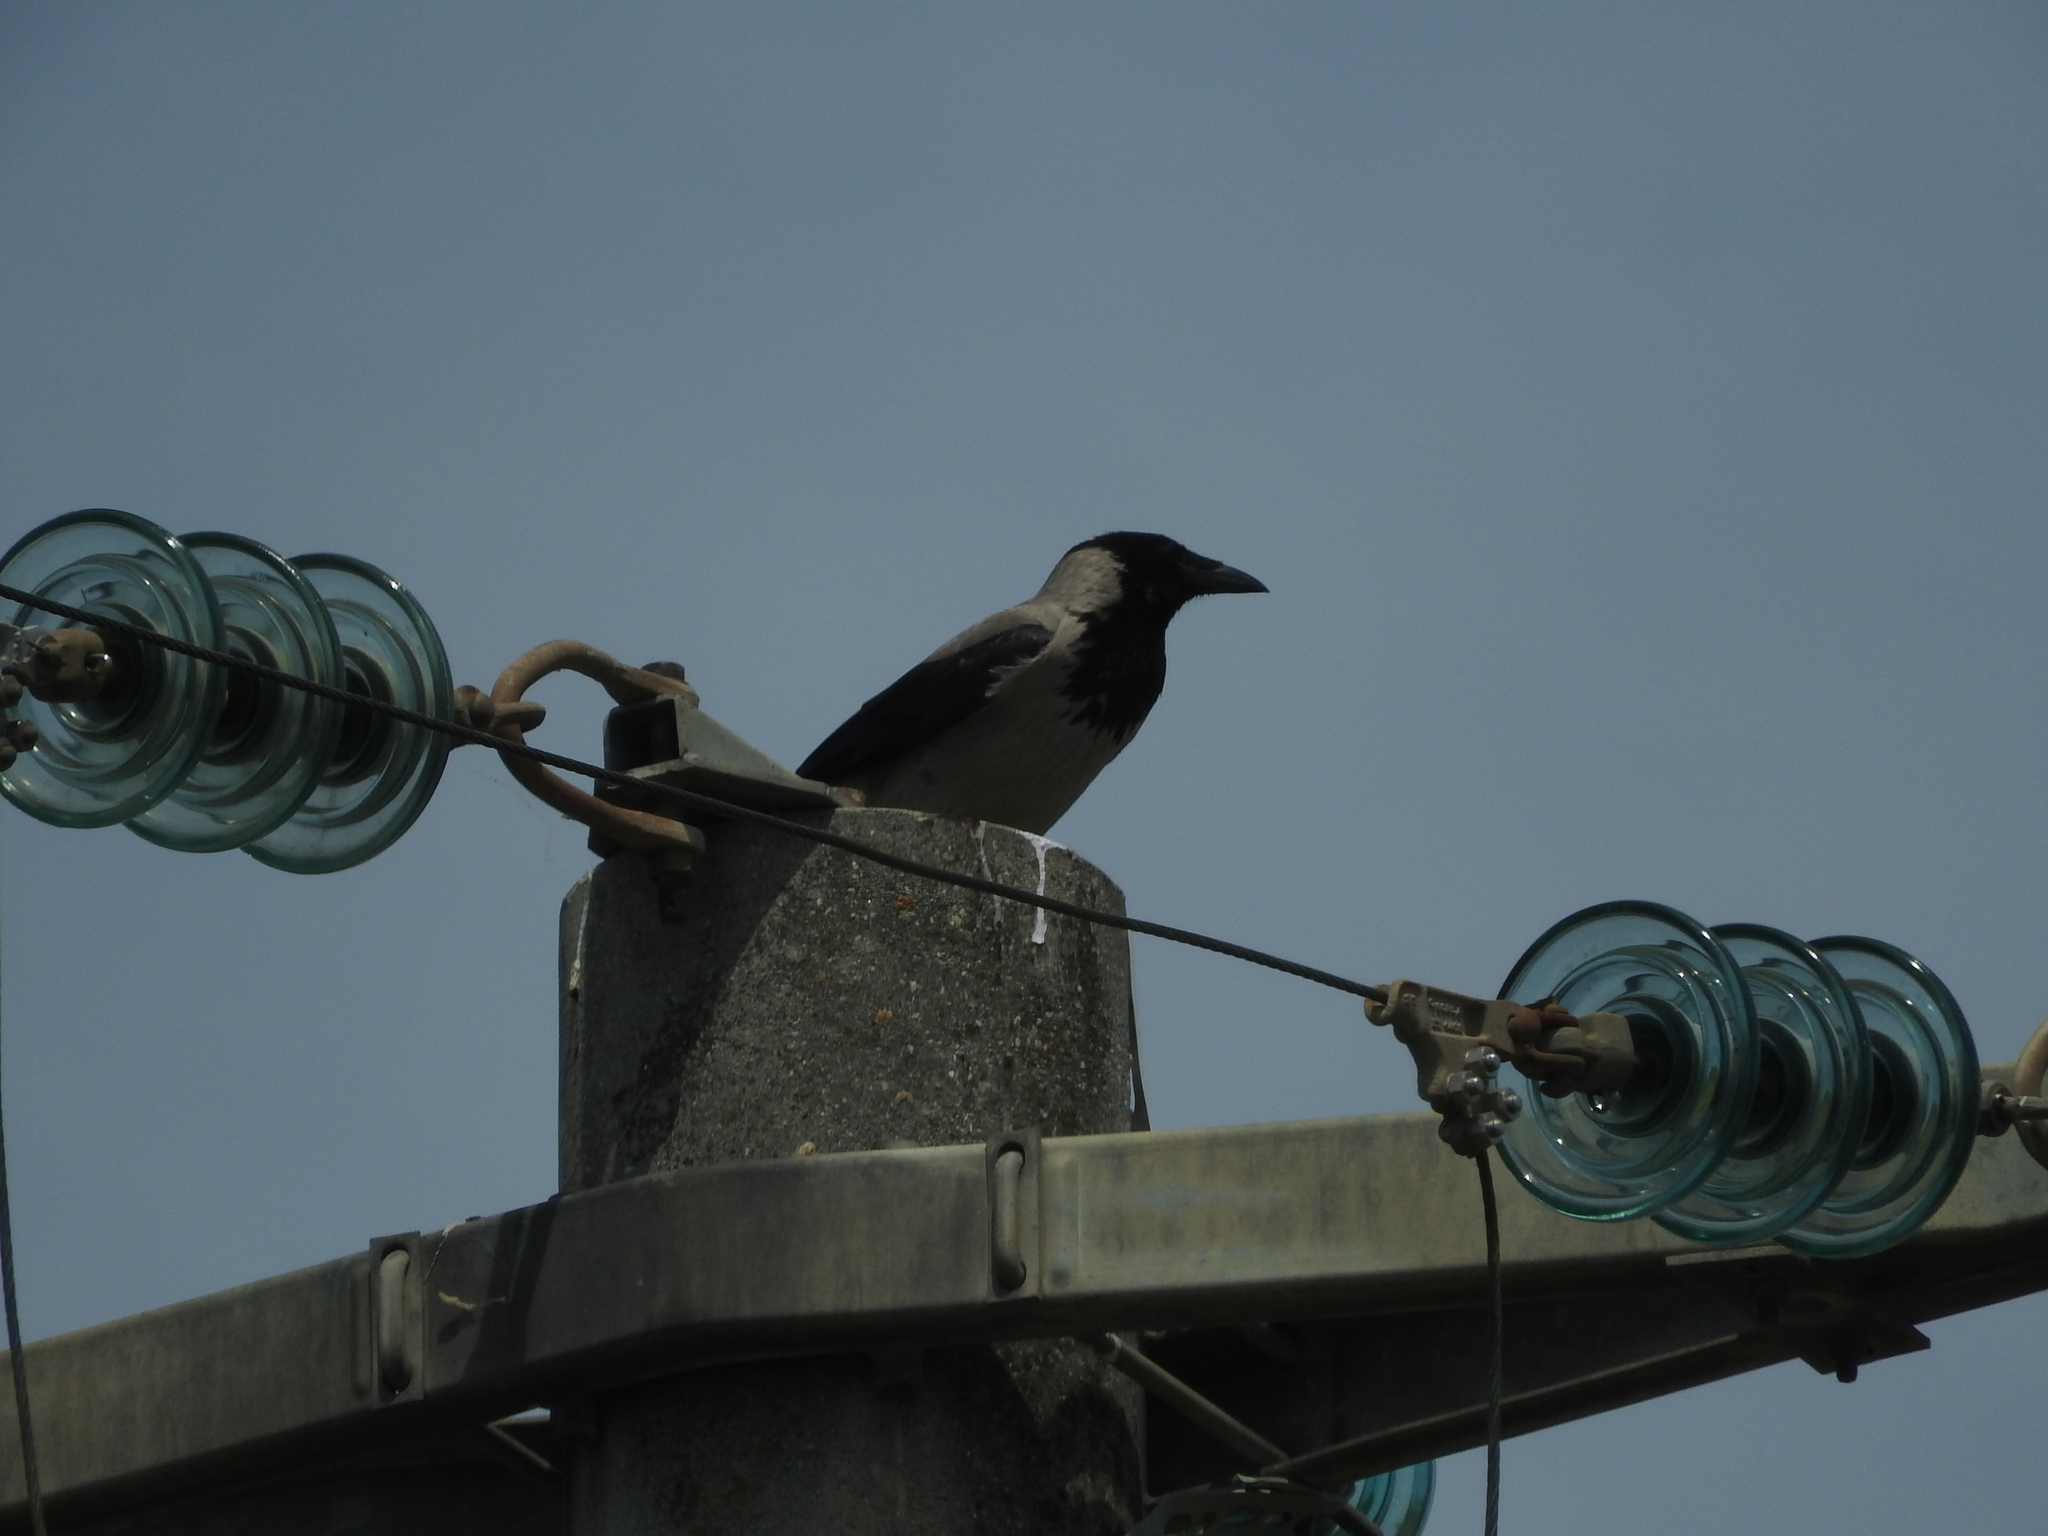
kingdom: Animalia
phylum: Chordata
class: Aves
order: Passeriformes
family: Corvidae
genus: Corvus
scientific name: Corvus cornix
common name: Hooded crow
